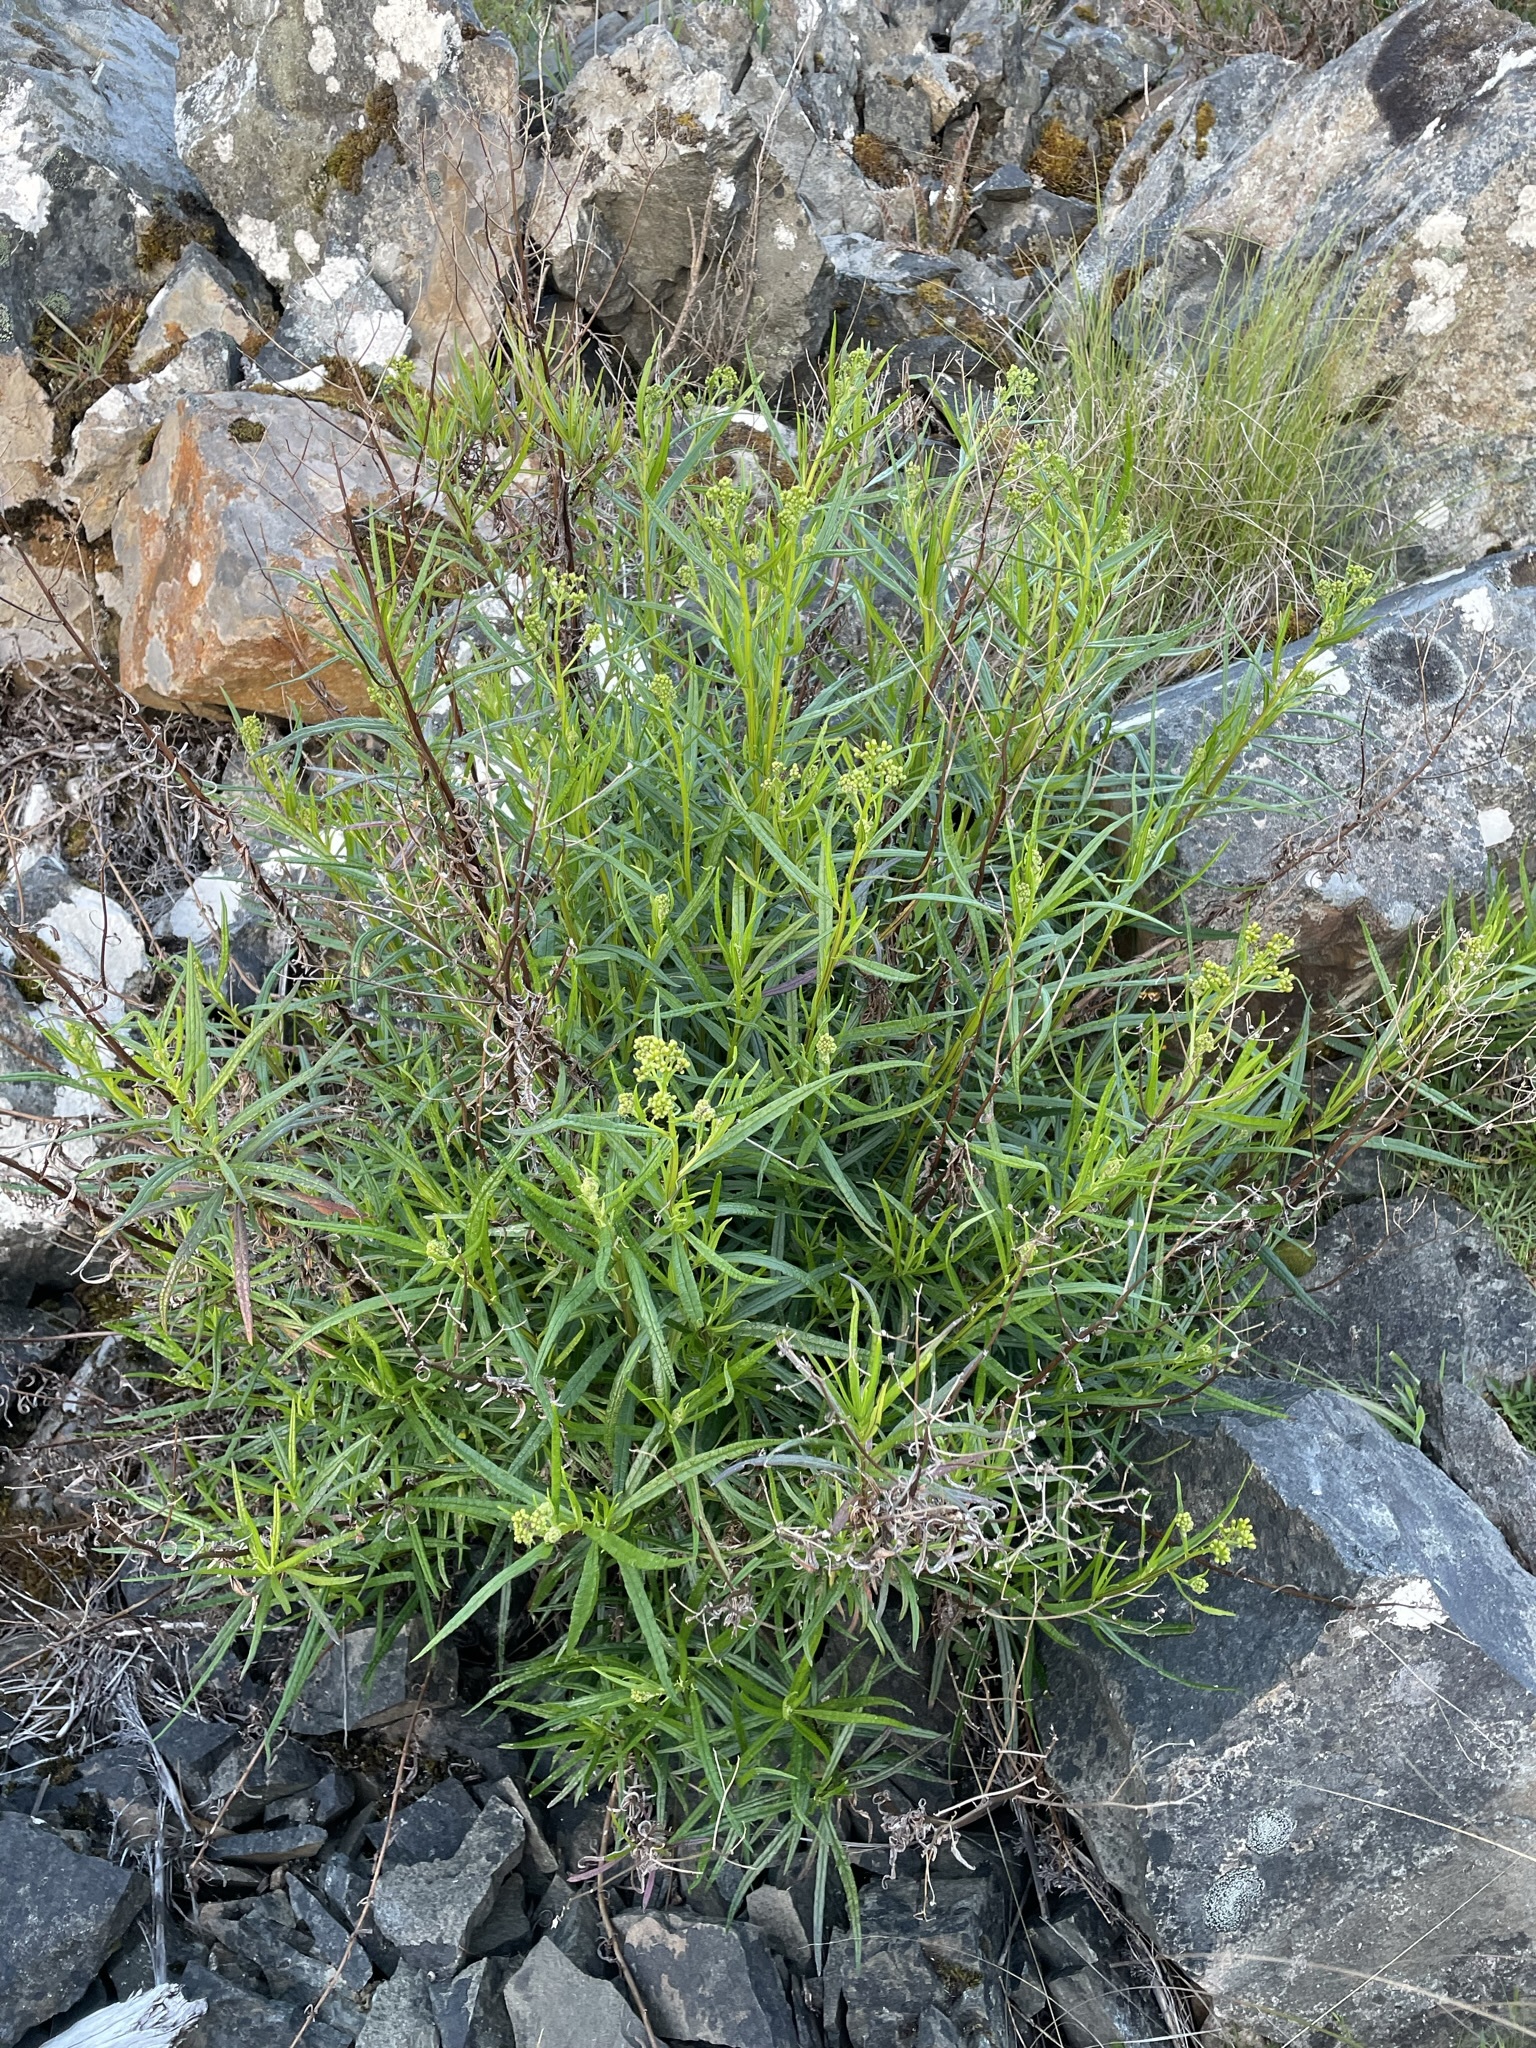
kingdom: Plantae
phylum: Tracheophyta
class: Magnoliopsida
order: Asterales
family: Asteraceae
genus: Senecio
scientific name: Senecio linearifolius
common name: Fireweed groundsel
